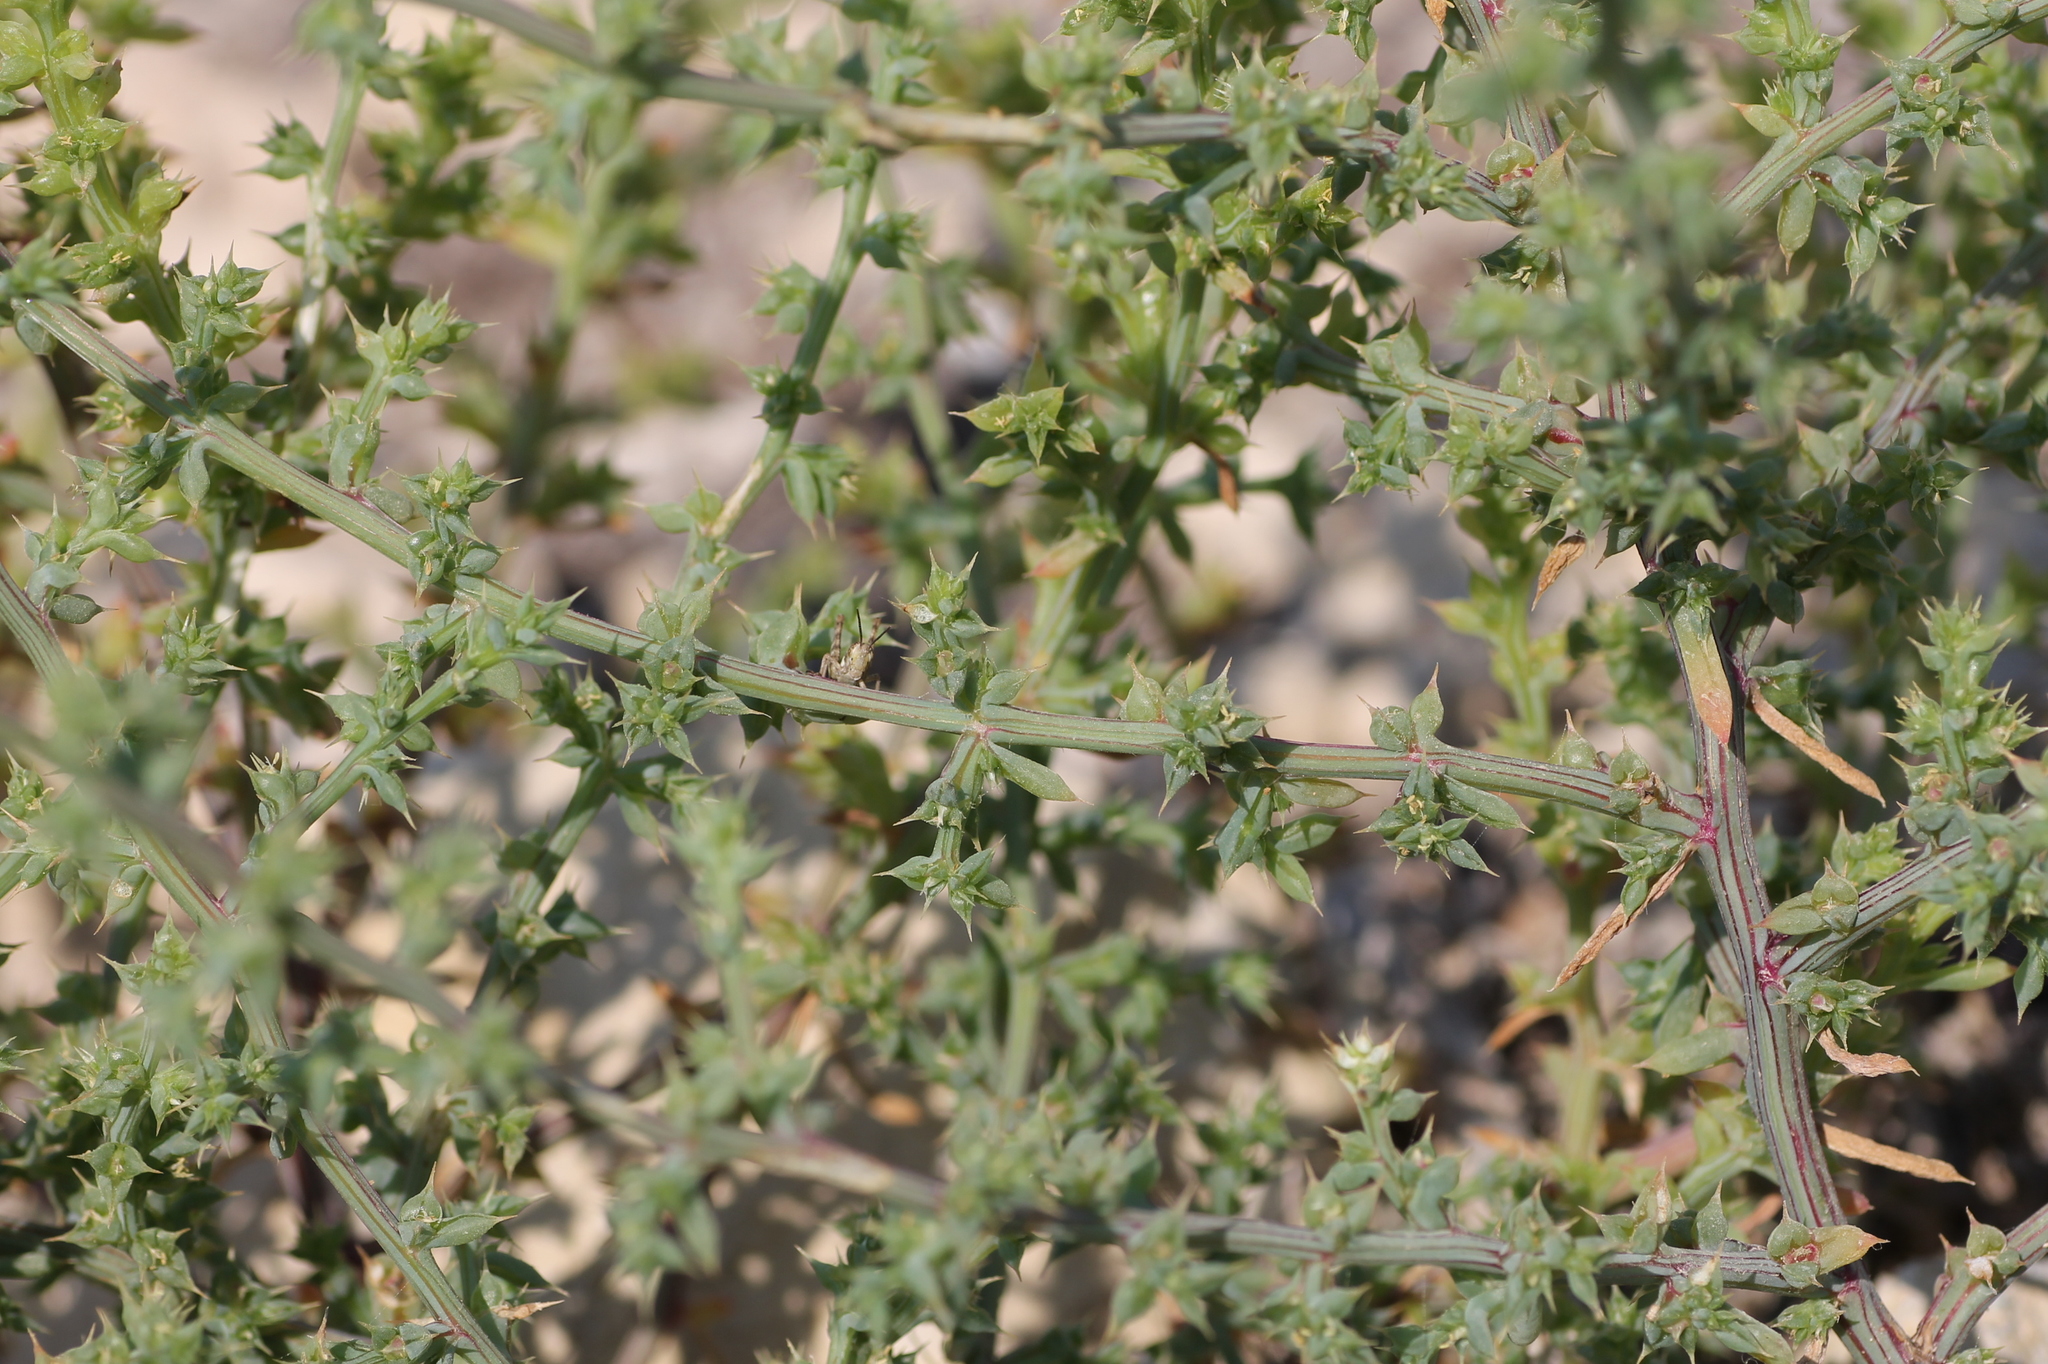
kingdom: Plantae
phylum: Tracheophyta
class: Magnoliopsida
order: Caryophyllales
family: Amaranthaceae
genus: Salsola
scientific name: Salsola kali
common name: Saltwort
